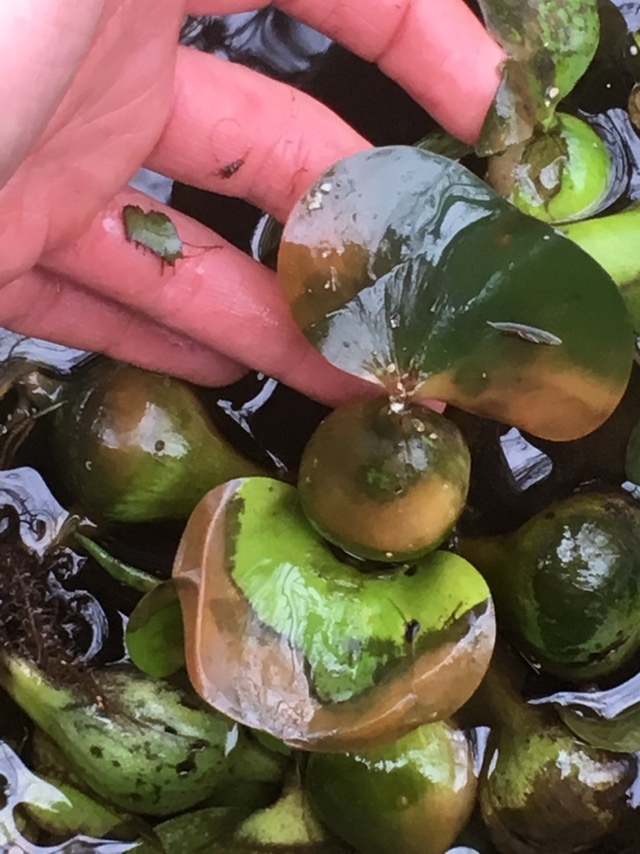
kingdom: Plantae
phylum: Tracheophyta
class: Liliopsida
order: Commelinales
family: Pontederiaceae
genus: Pontederia
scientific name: Pontederia crassipes
